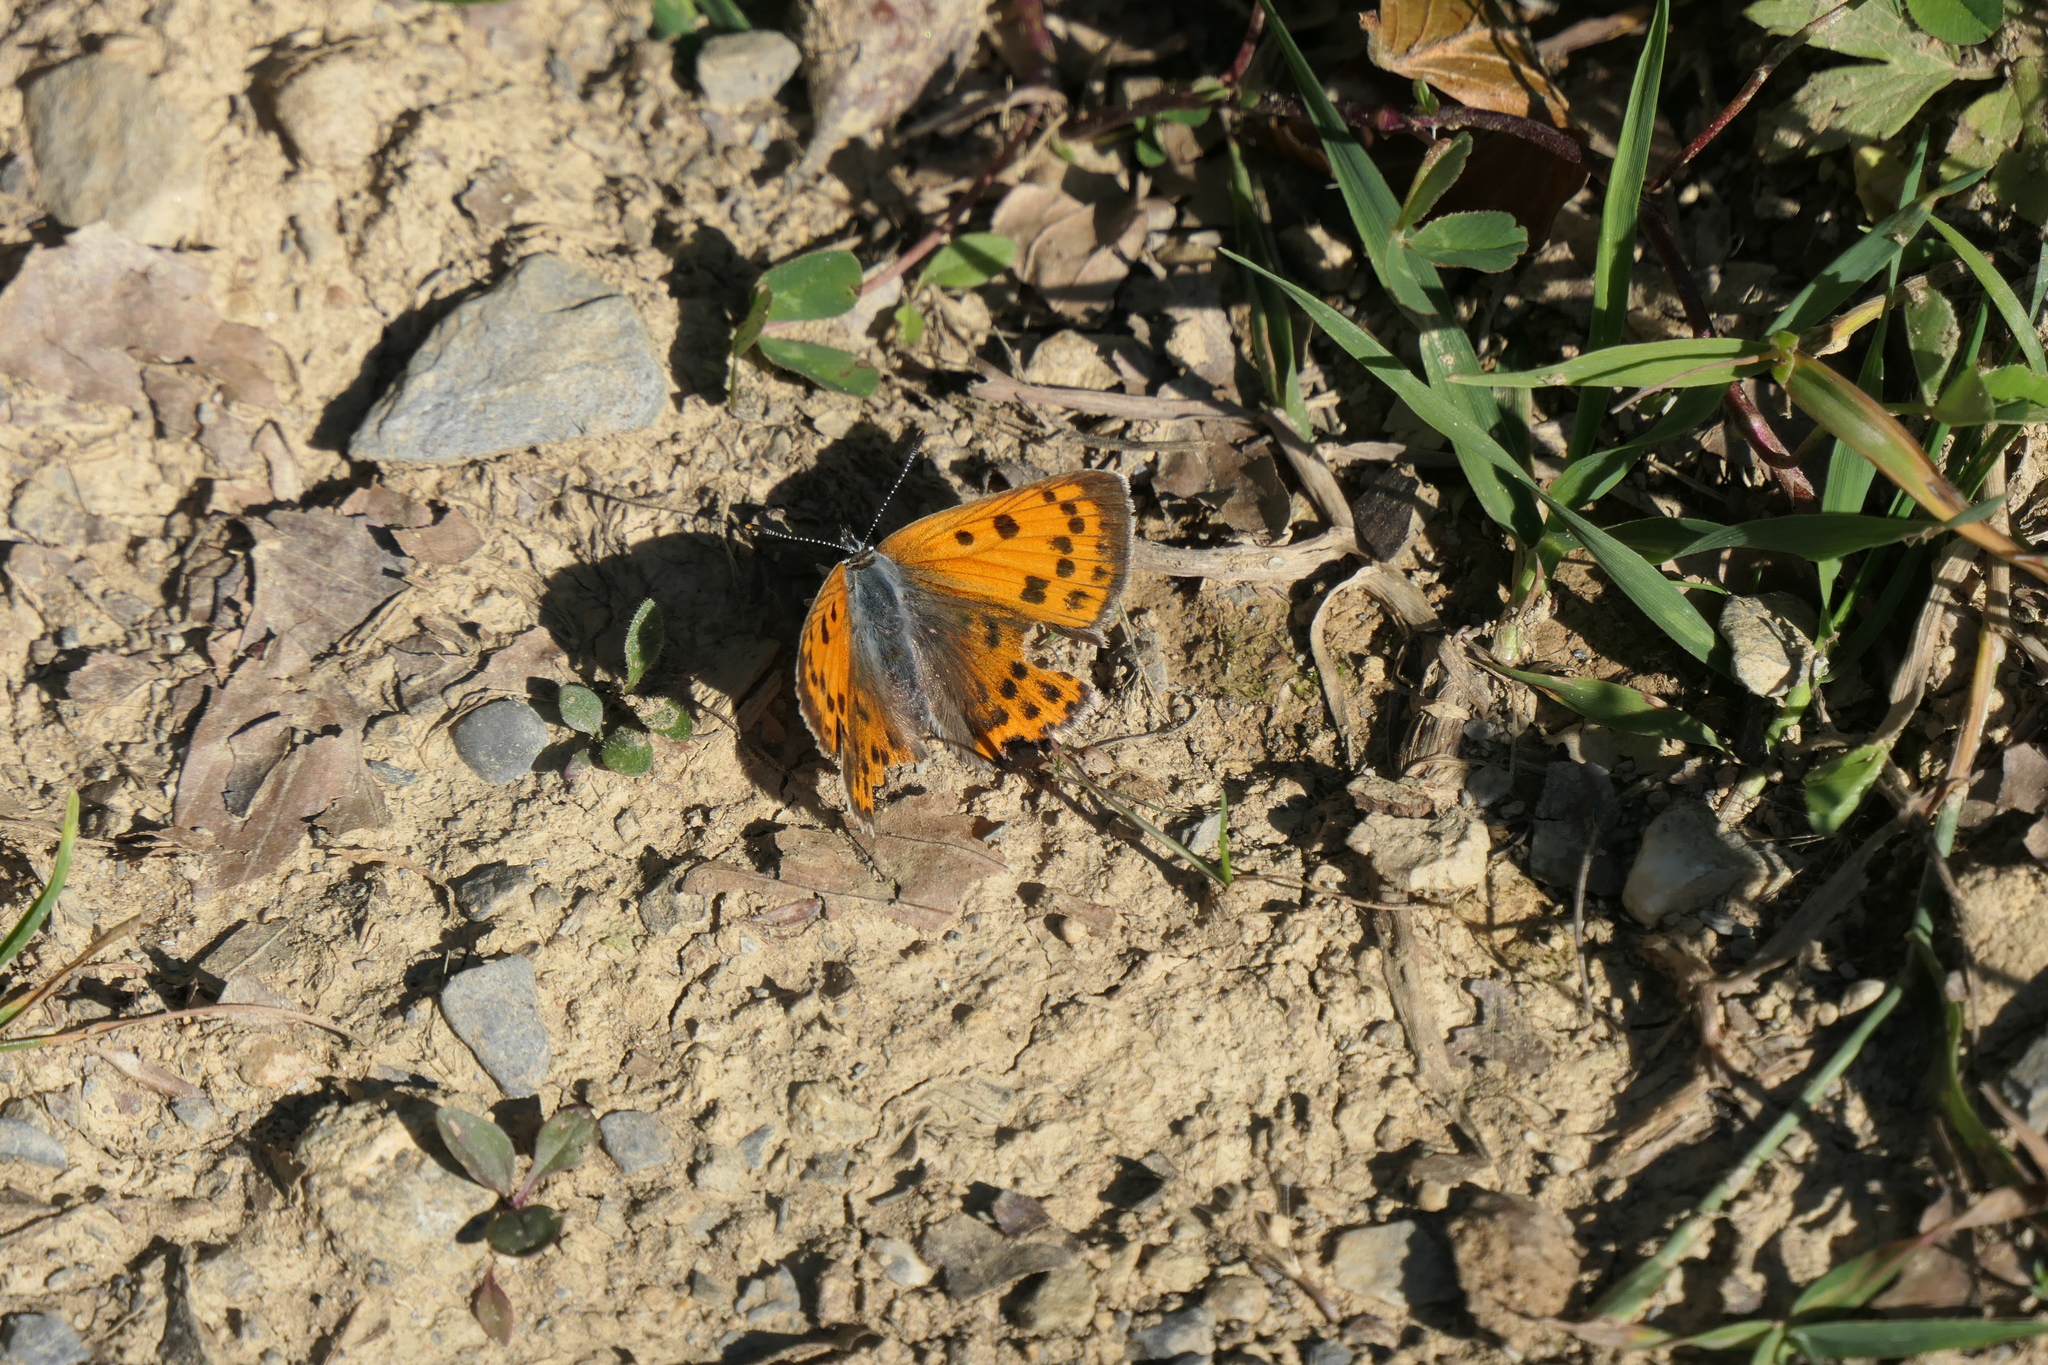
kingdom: Animalia
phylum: Arthropoda
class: Insecta
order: Lepidoptera
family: Lycaenidae
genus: Lycaena
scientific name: Lycaena alciphron
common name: Purple-shot copper
